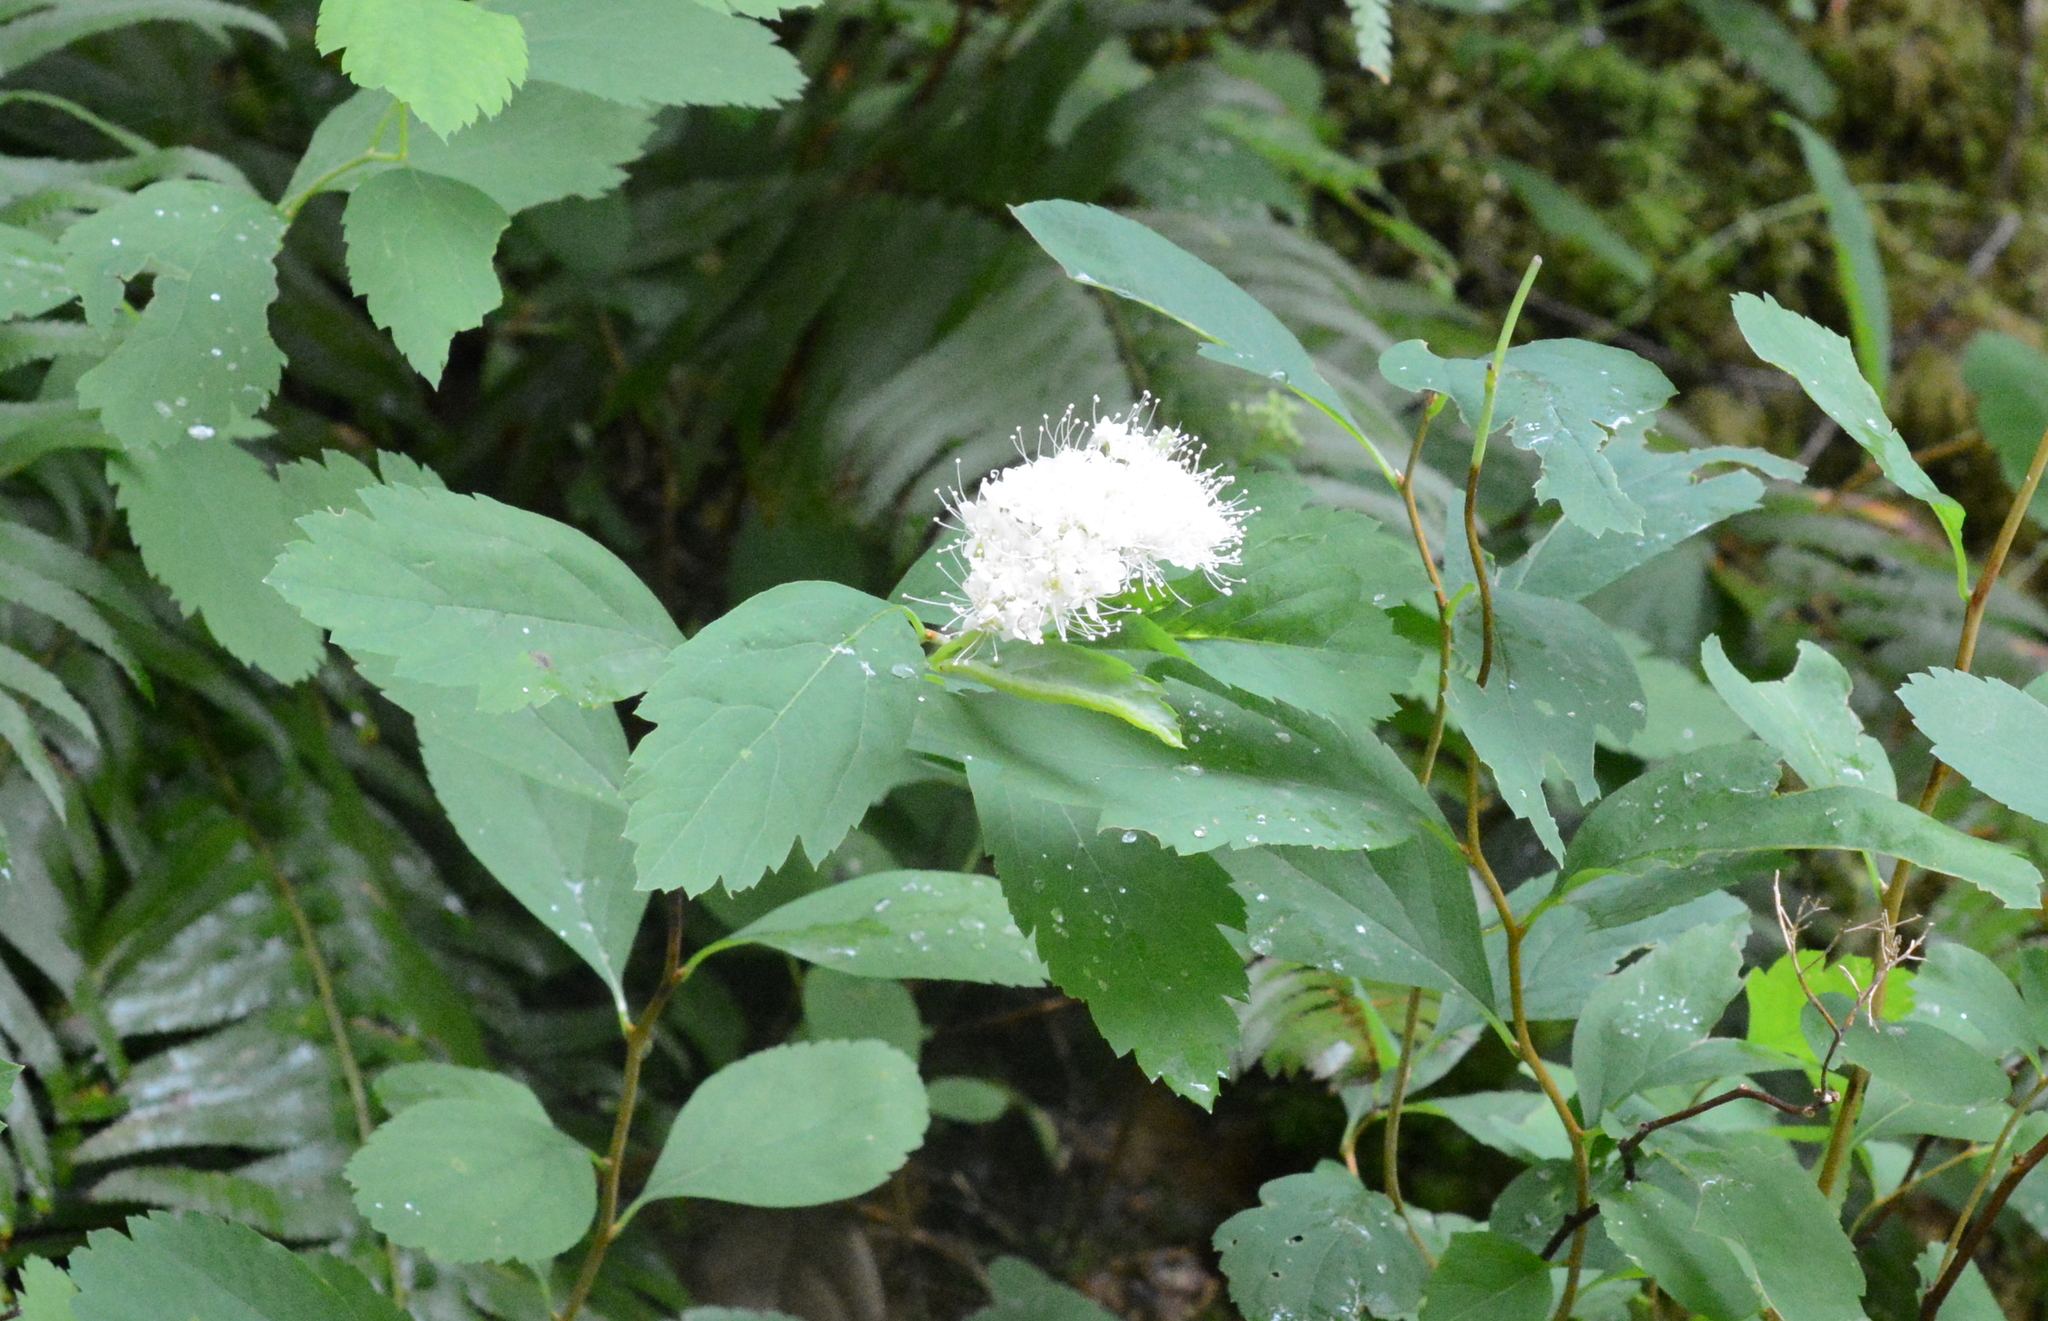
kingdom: Plantae
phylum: Tracheophyta
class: Magnoliopsida
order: Rosales
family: Rosaceae
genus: Spiraea
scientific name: Spiraea lucida
